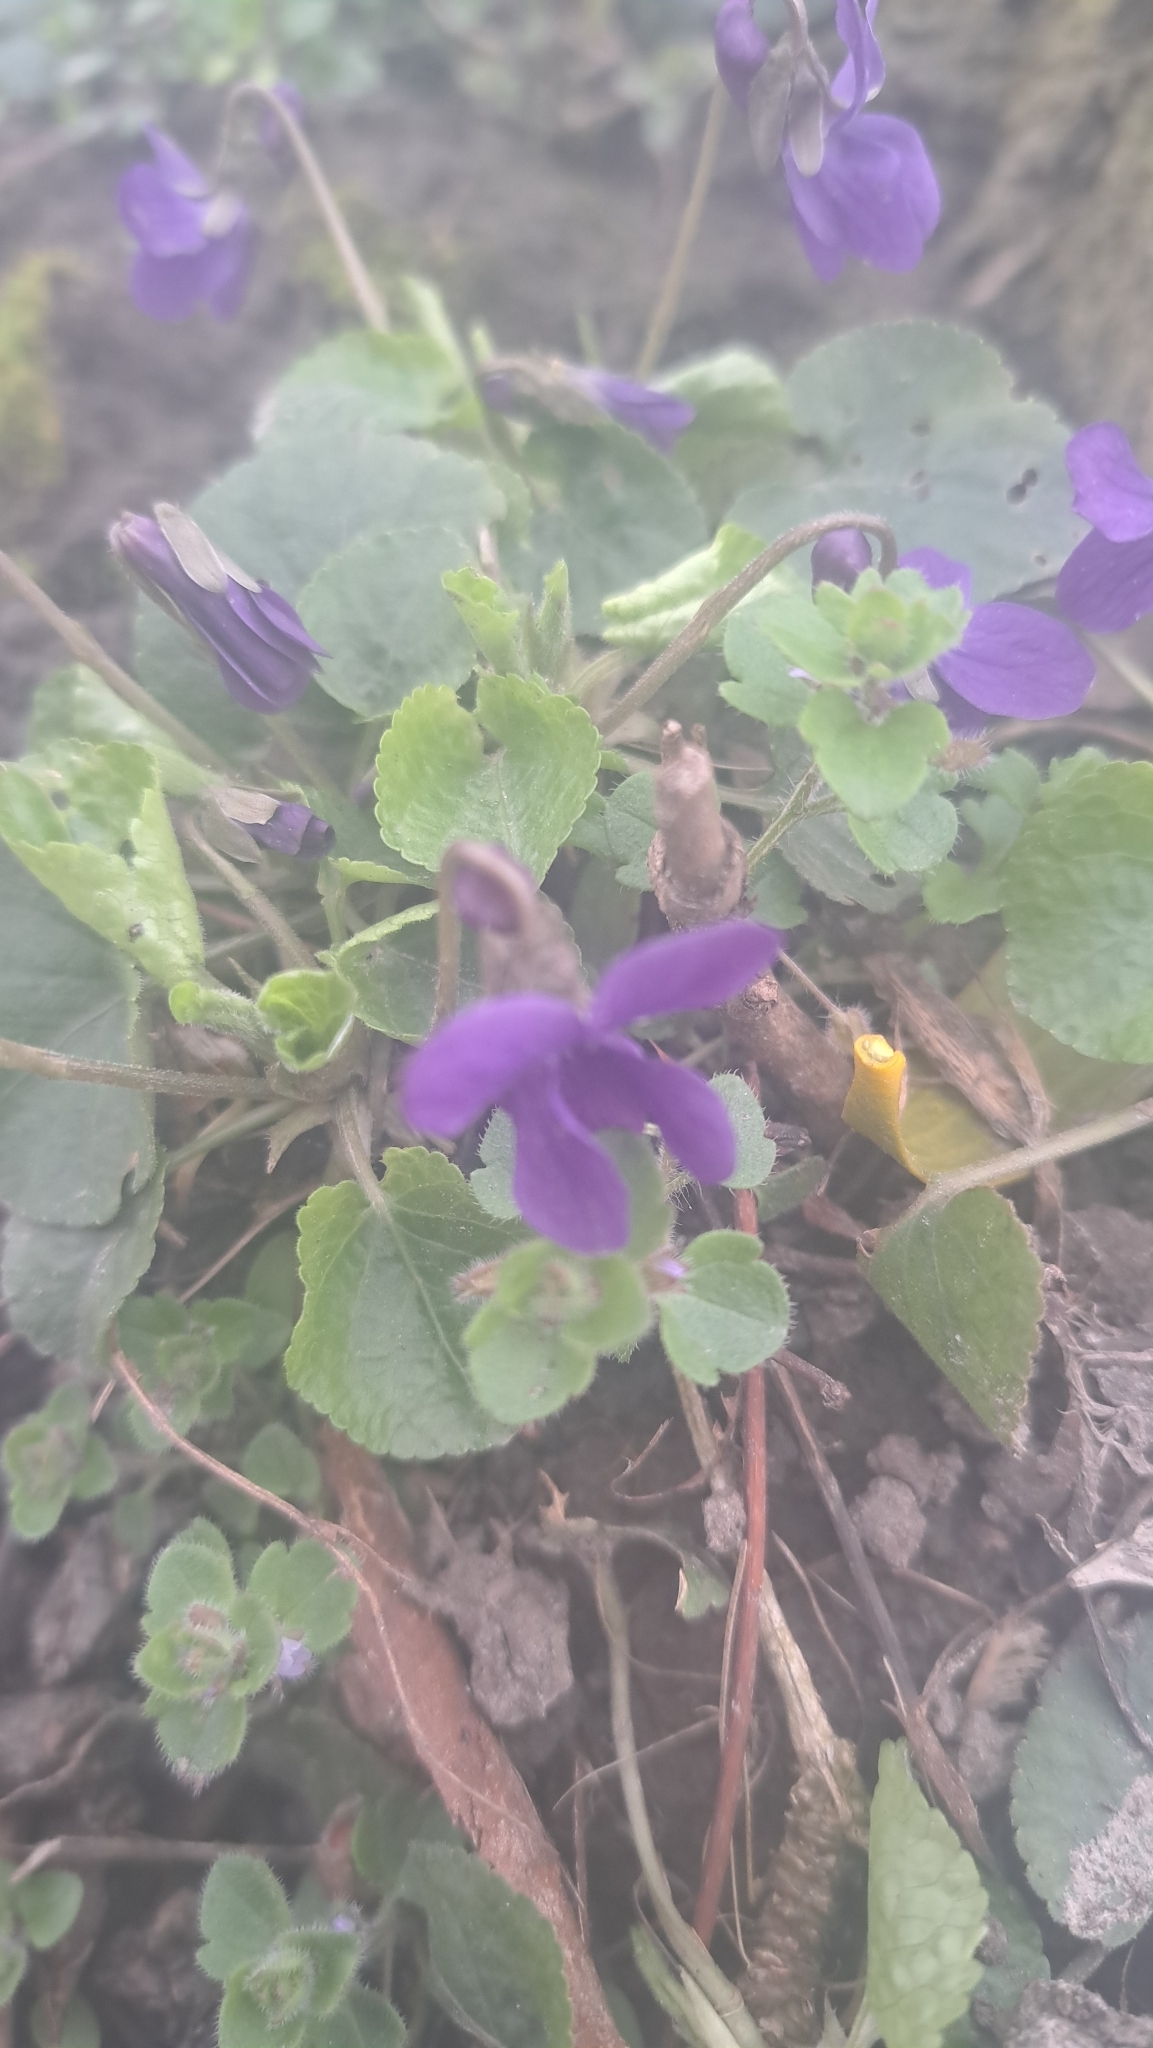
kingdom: Plantae
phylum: Tracheophyta
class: Magnoliopsida
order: Malpighiales
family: Violaceae
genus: Viola
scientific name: Viola odorata
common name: Sweet violet
